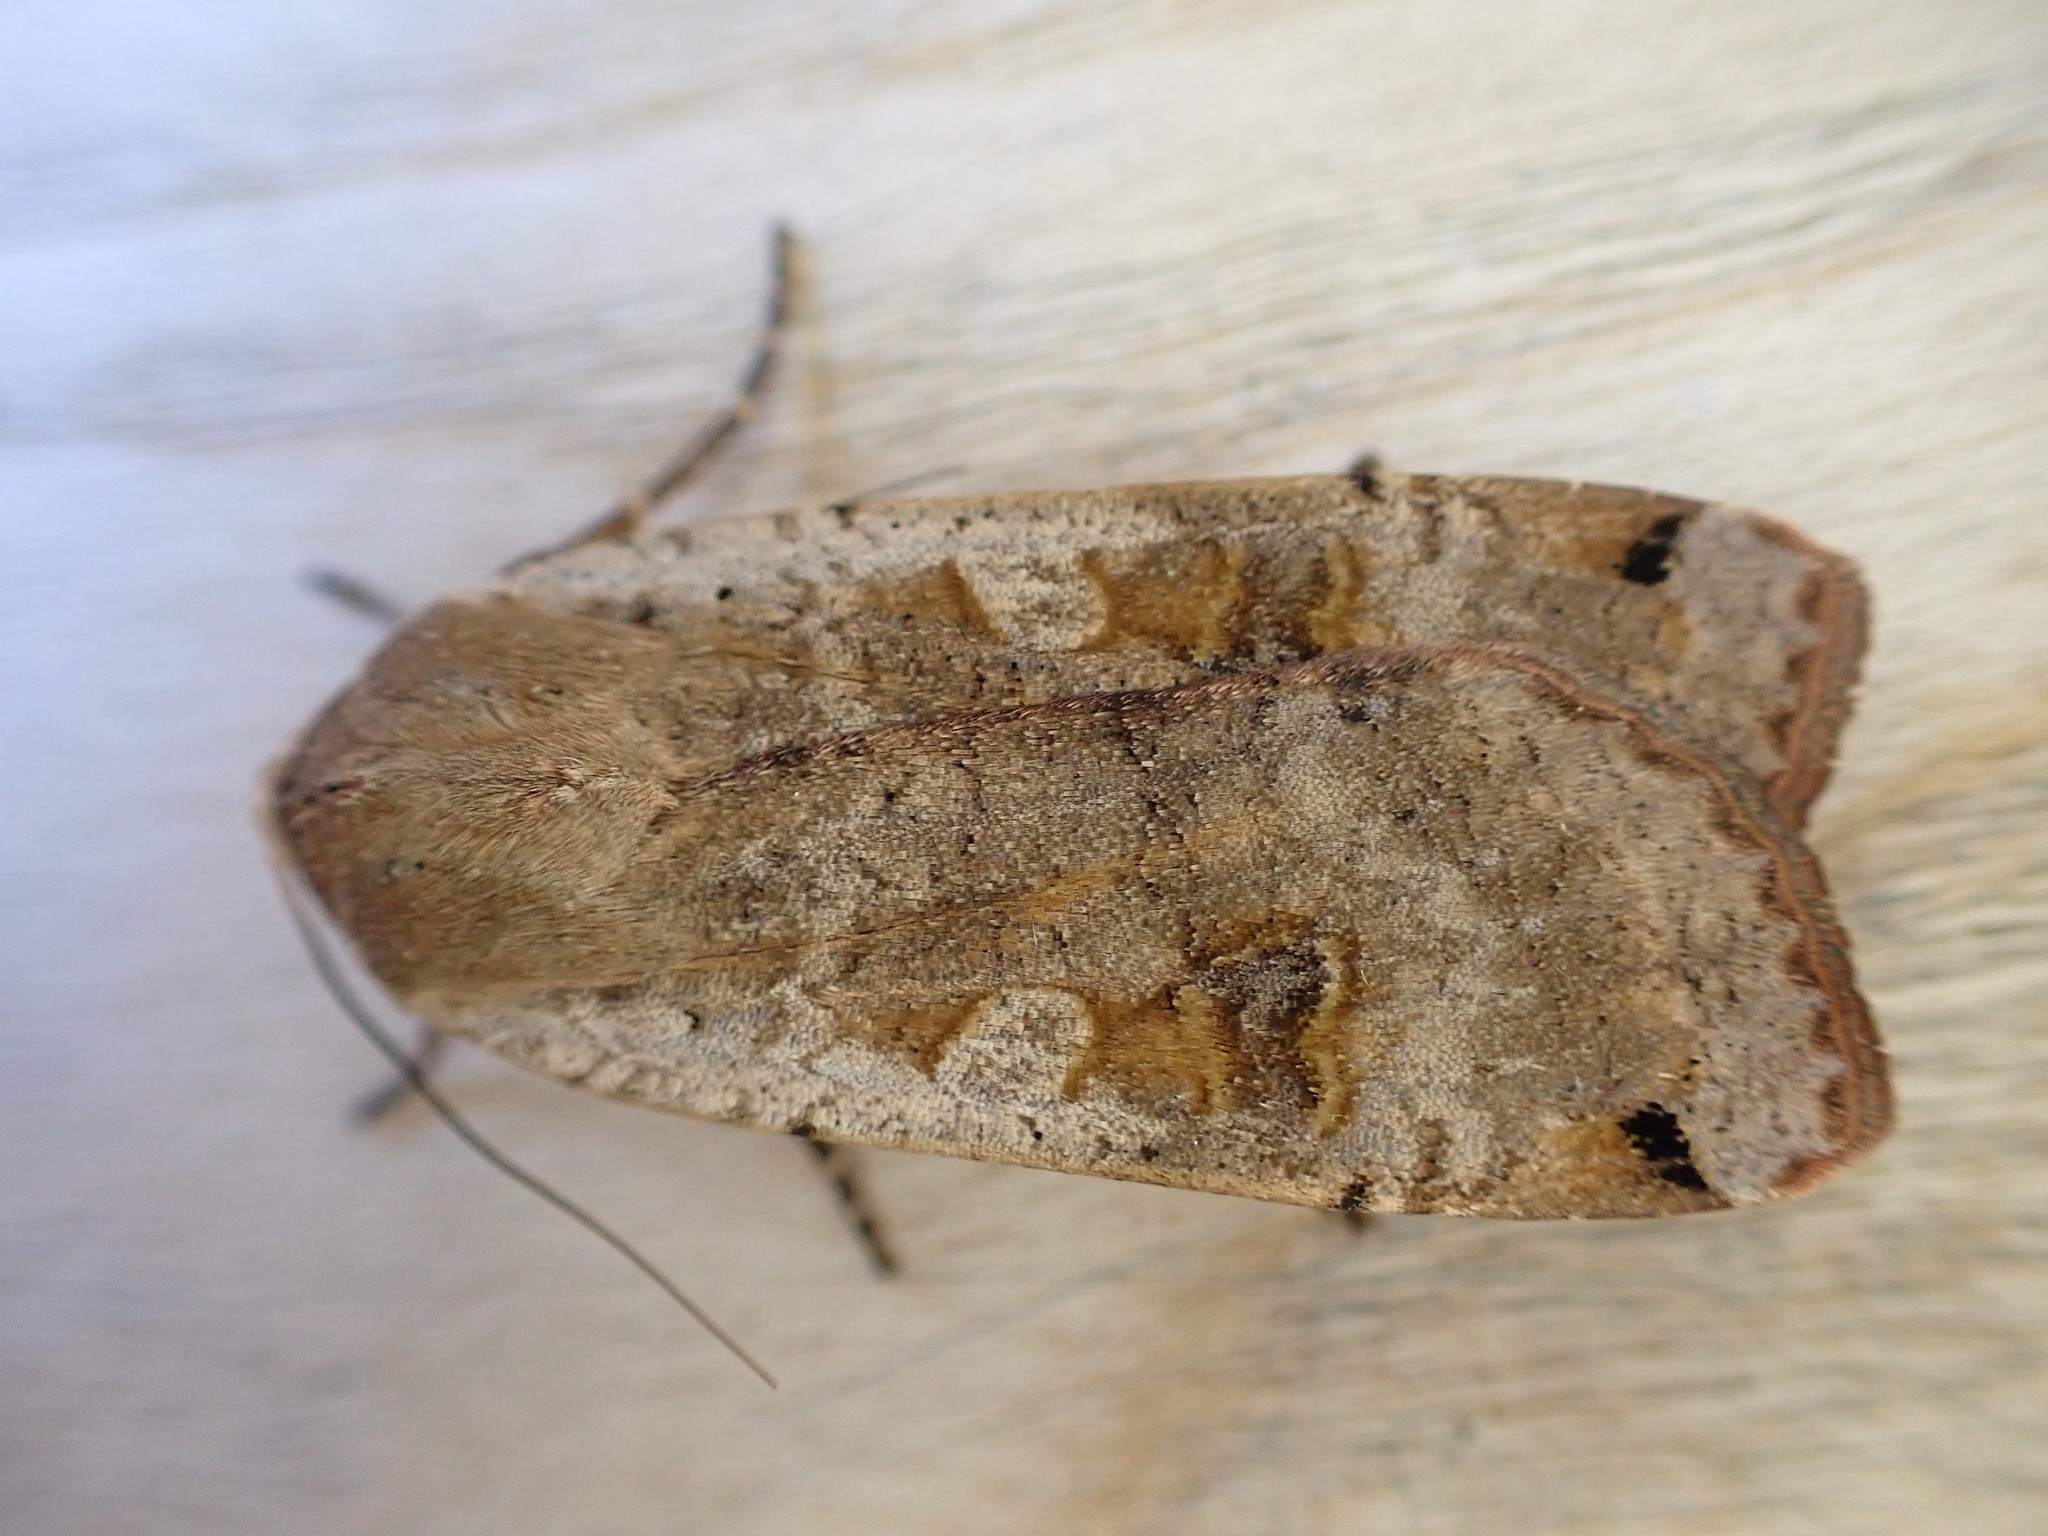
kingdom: Animalia
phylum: Arthropoda
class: Insecta
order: Lepidoptera
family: Noctuidae
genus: Noctua
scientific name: Noctua pronuba
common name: Large yellow underwing
